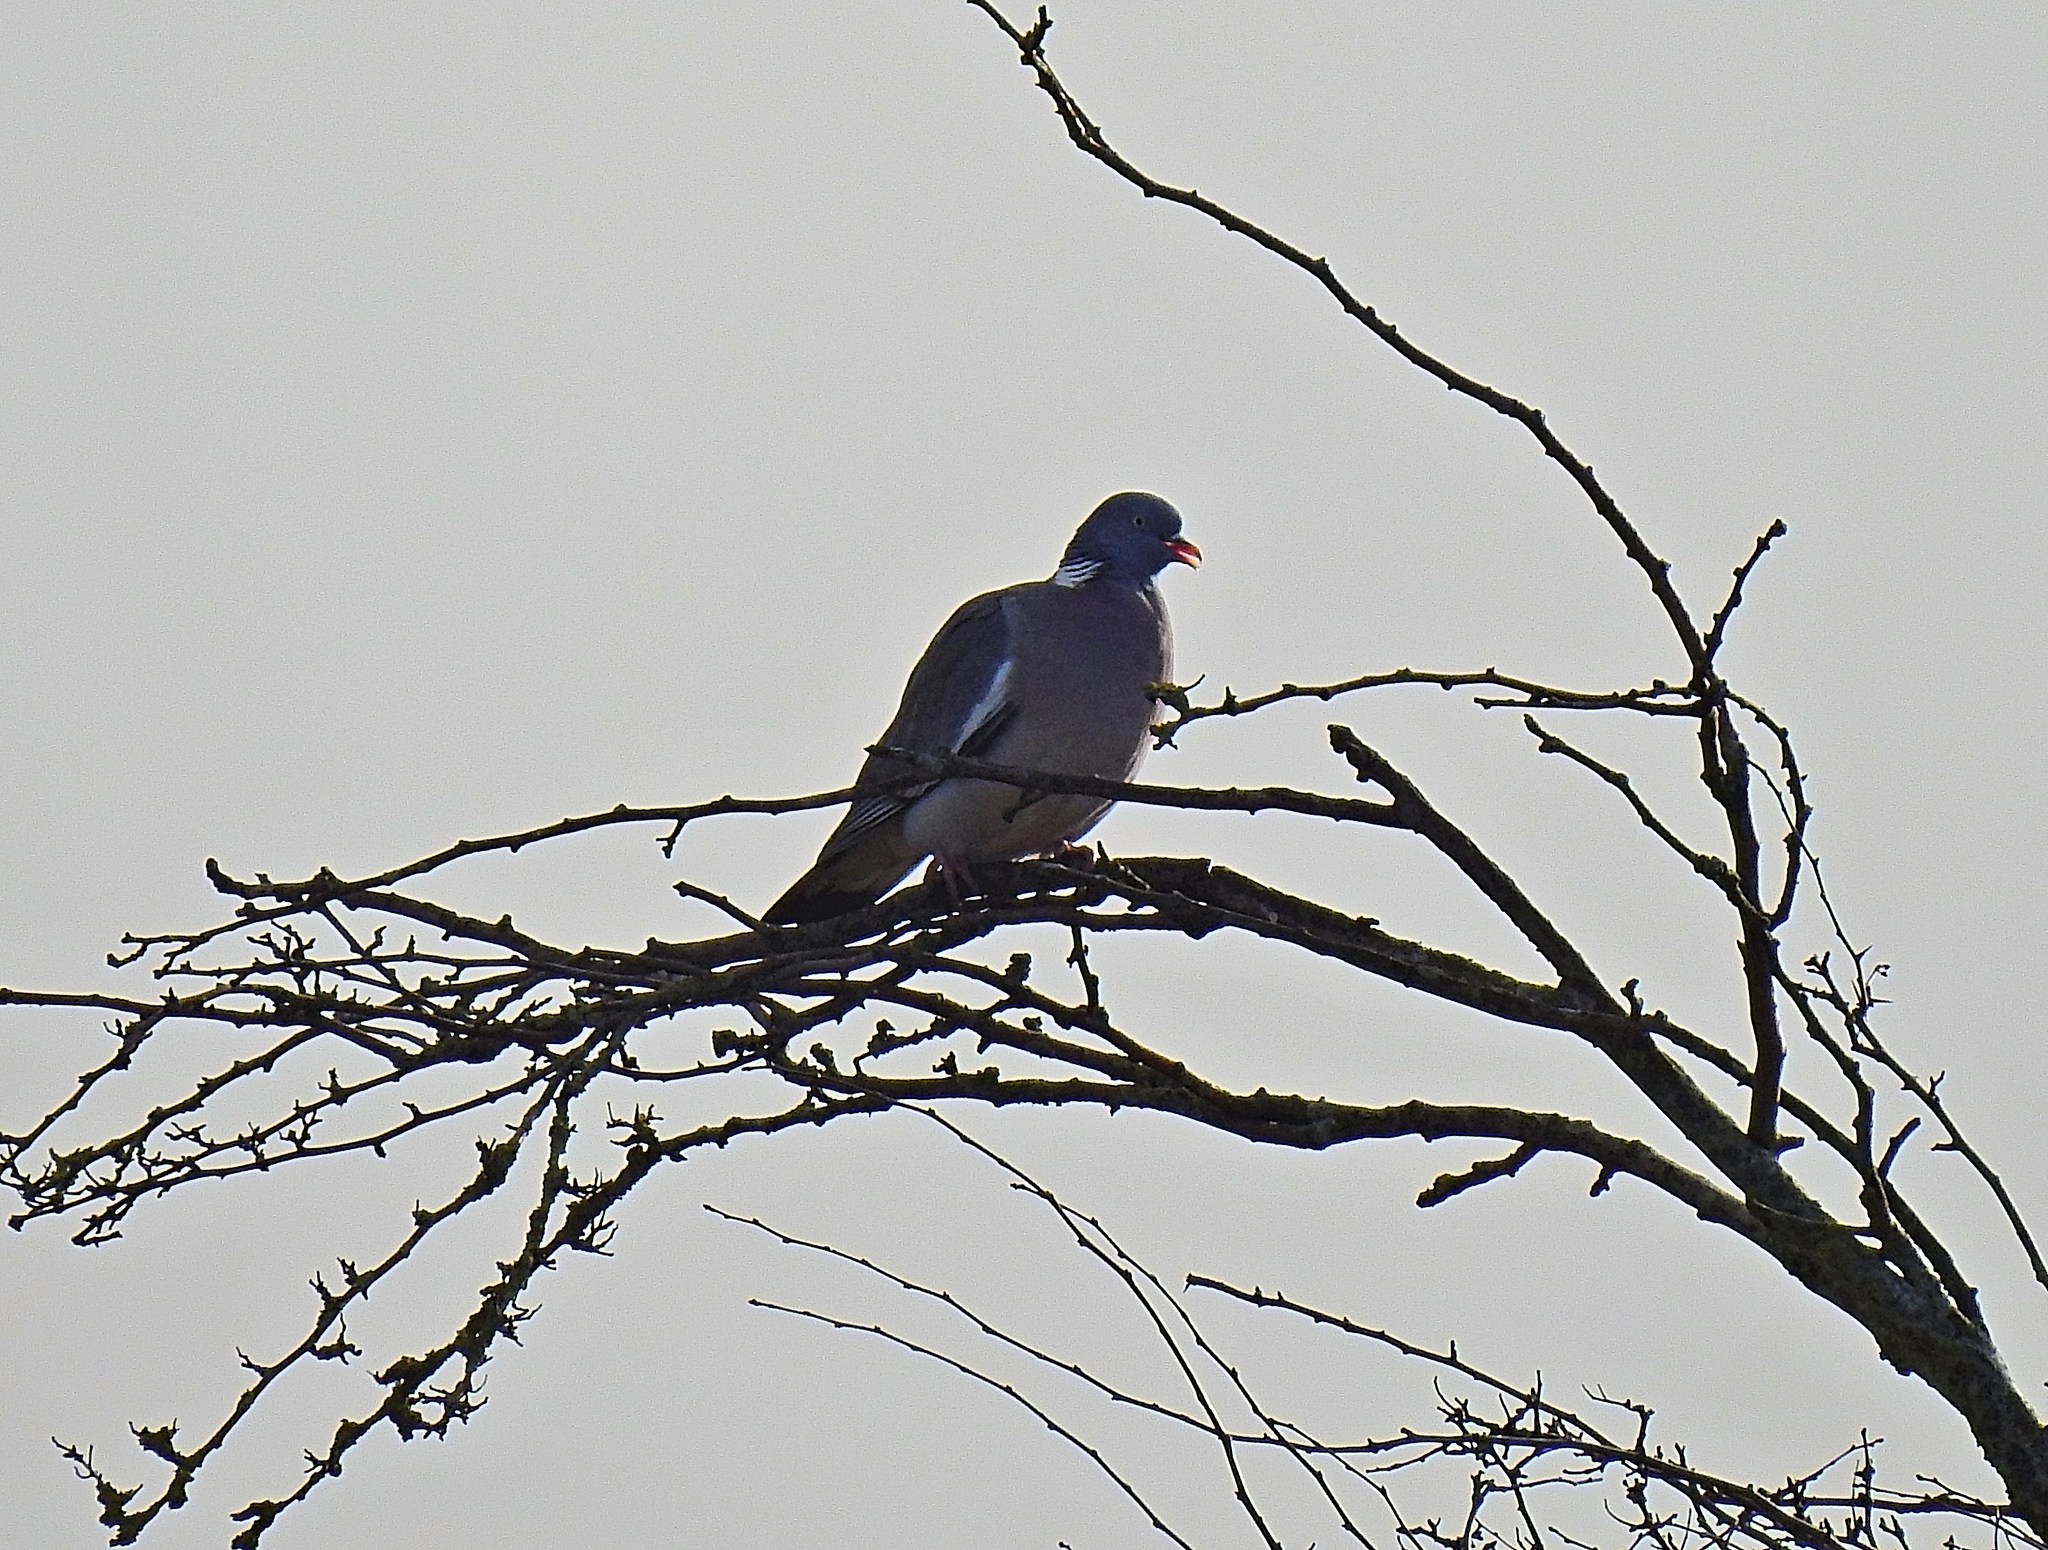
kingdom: Animalia
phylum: Chordata
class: Aves
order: Columbiformes
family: Columbidae
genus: Columba
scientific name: Columba palumbus
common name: Common wood pigeon
